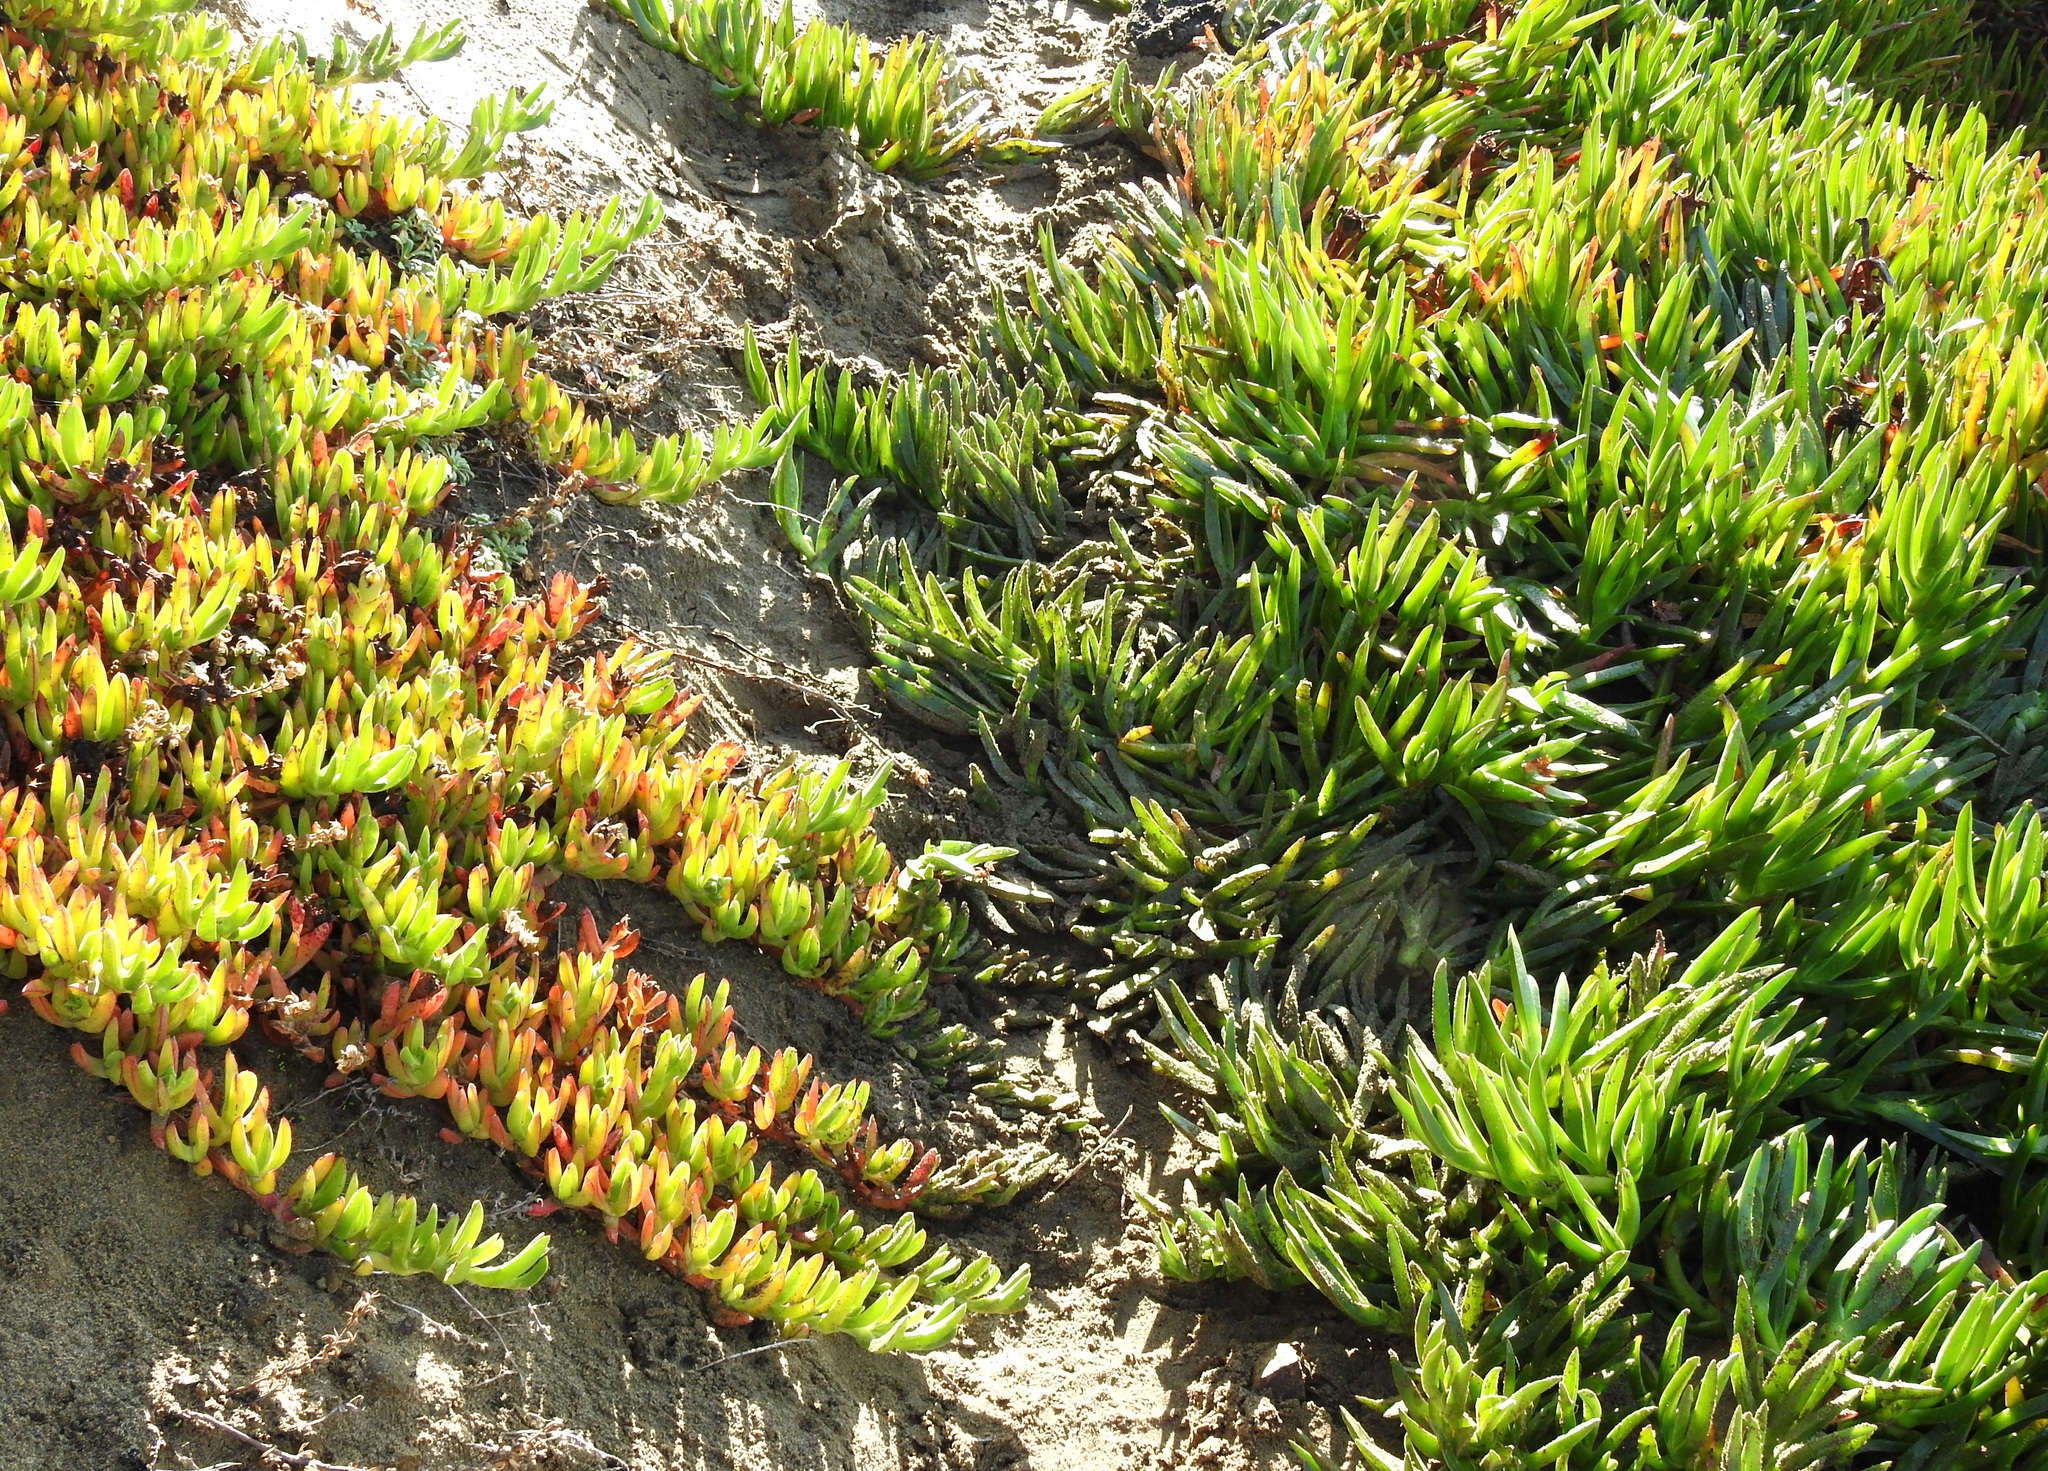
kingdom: Plantae
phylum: Tracheophyta
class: Magnoliopsida
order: Caryophyllales
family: Aizoaceae
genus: Carpobrotus
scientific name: Carpobrotus edulis
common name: Hottentot-fig
